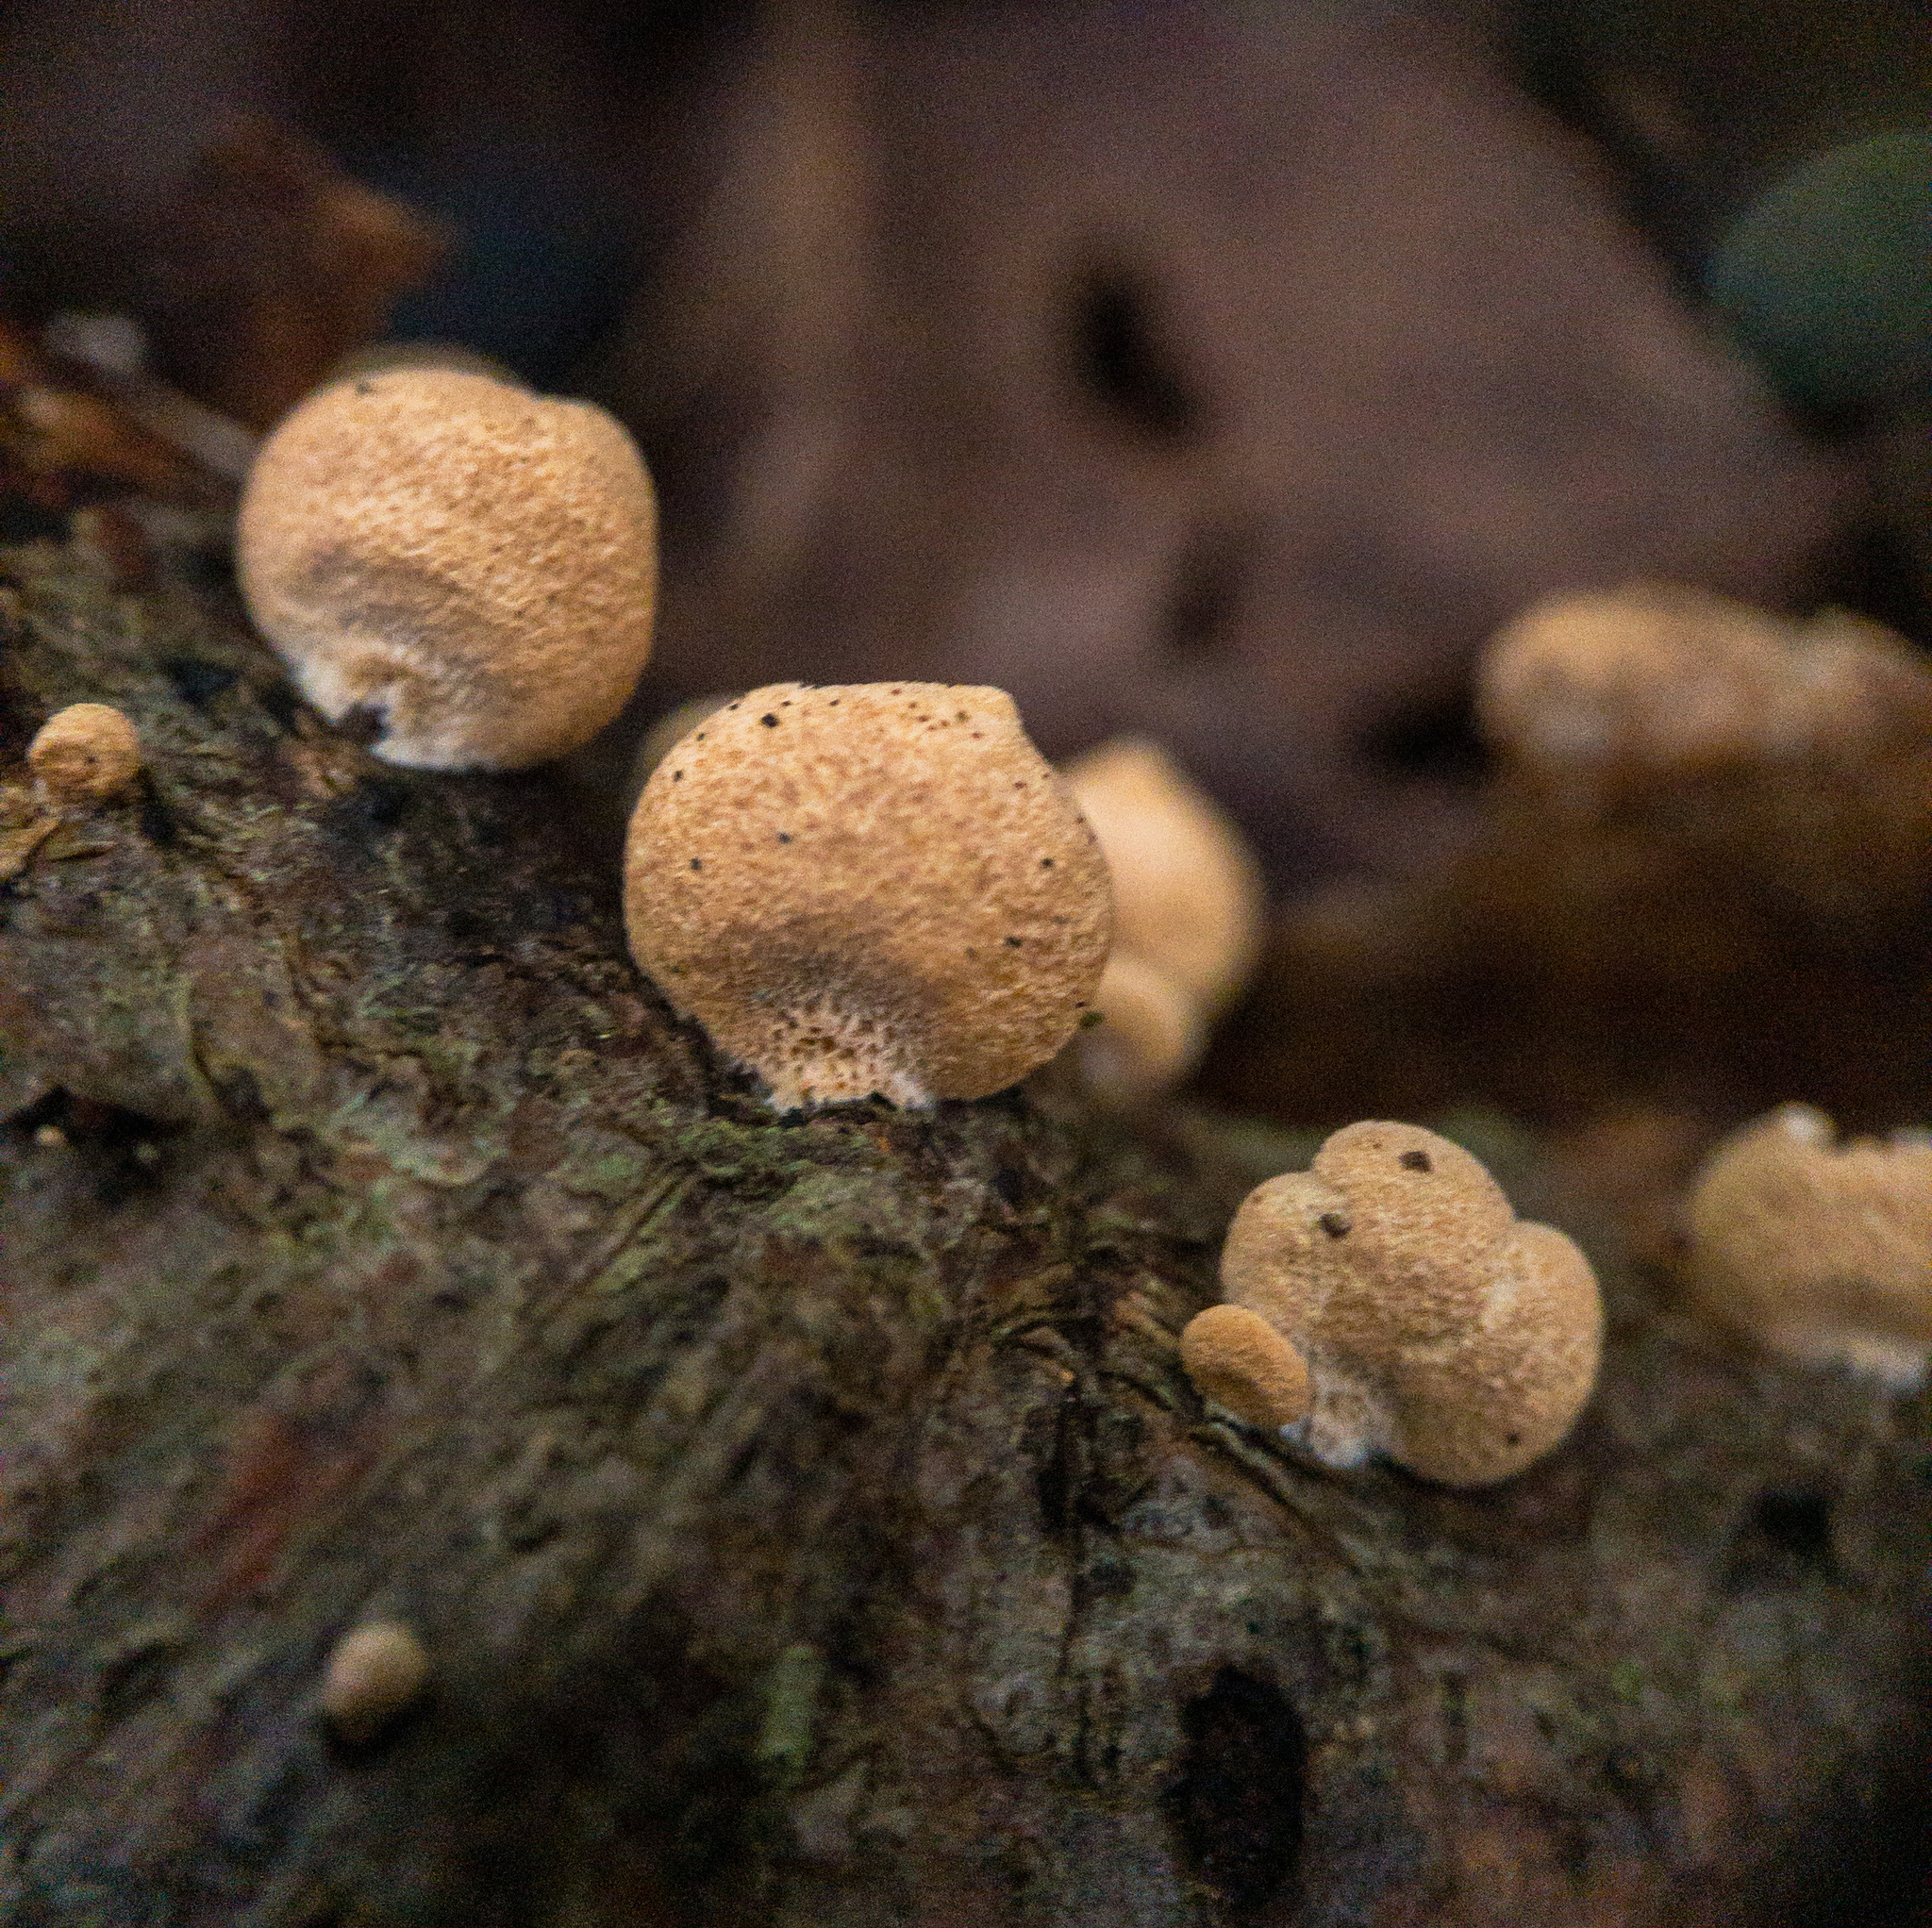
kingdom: Fungi
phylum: Basidiomycota
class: Agaricomycetes
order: Agaricales
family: Mycenaceae
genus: Panellus
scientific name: Panellus stipticus
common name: Bitter oysterling
